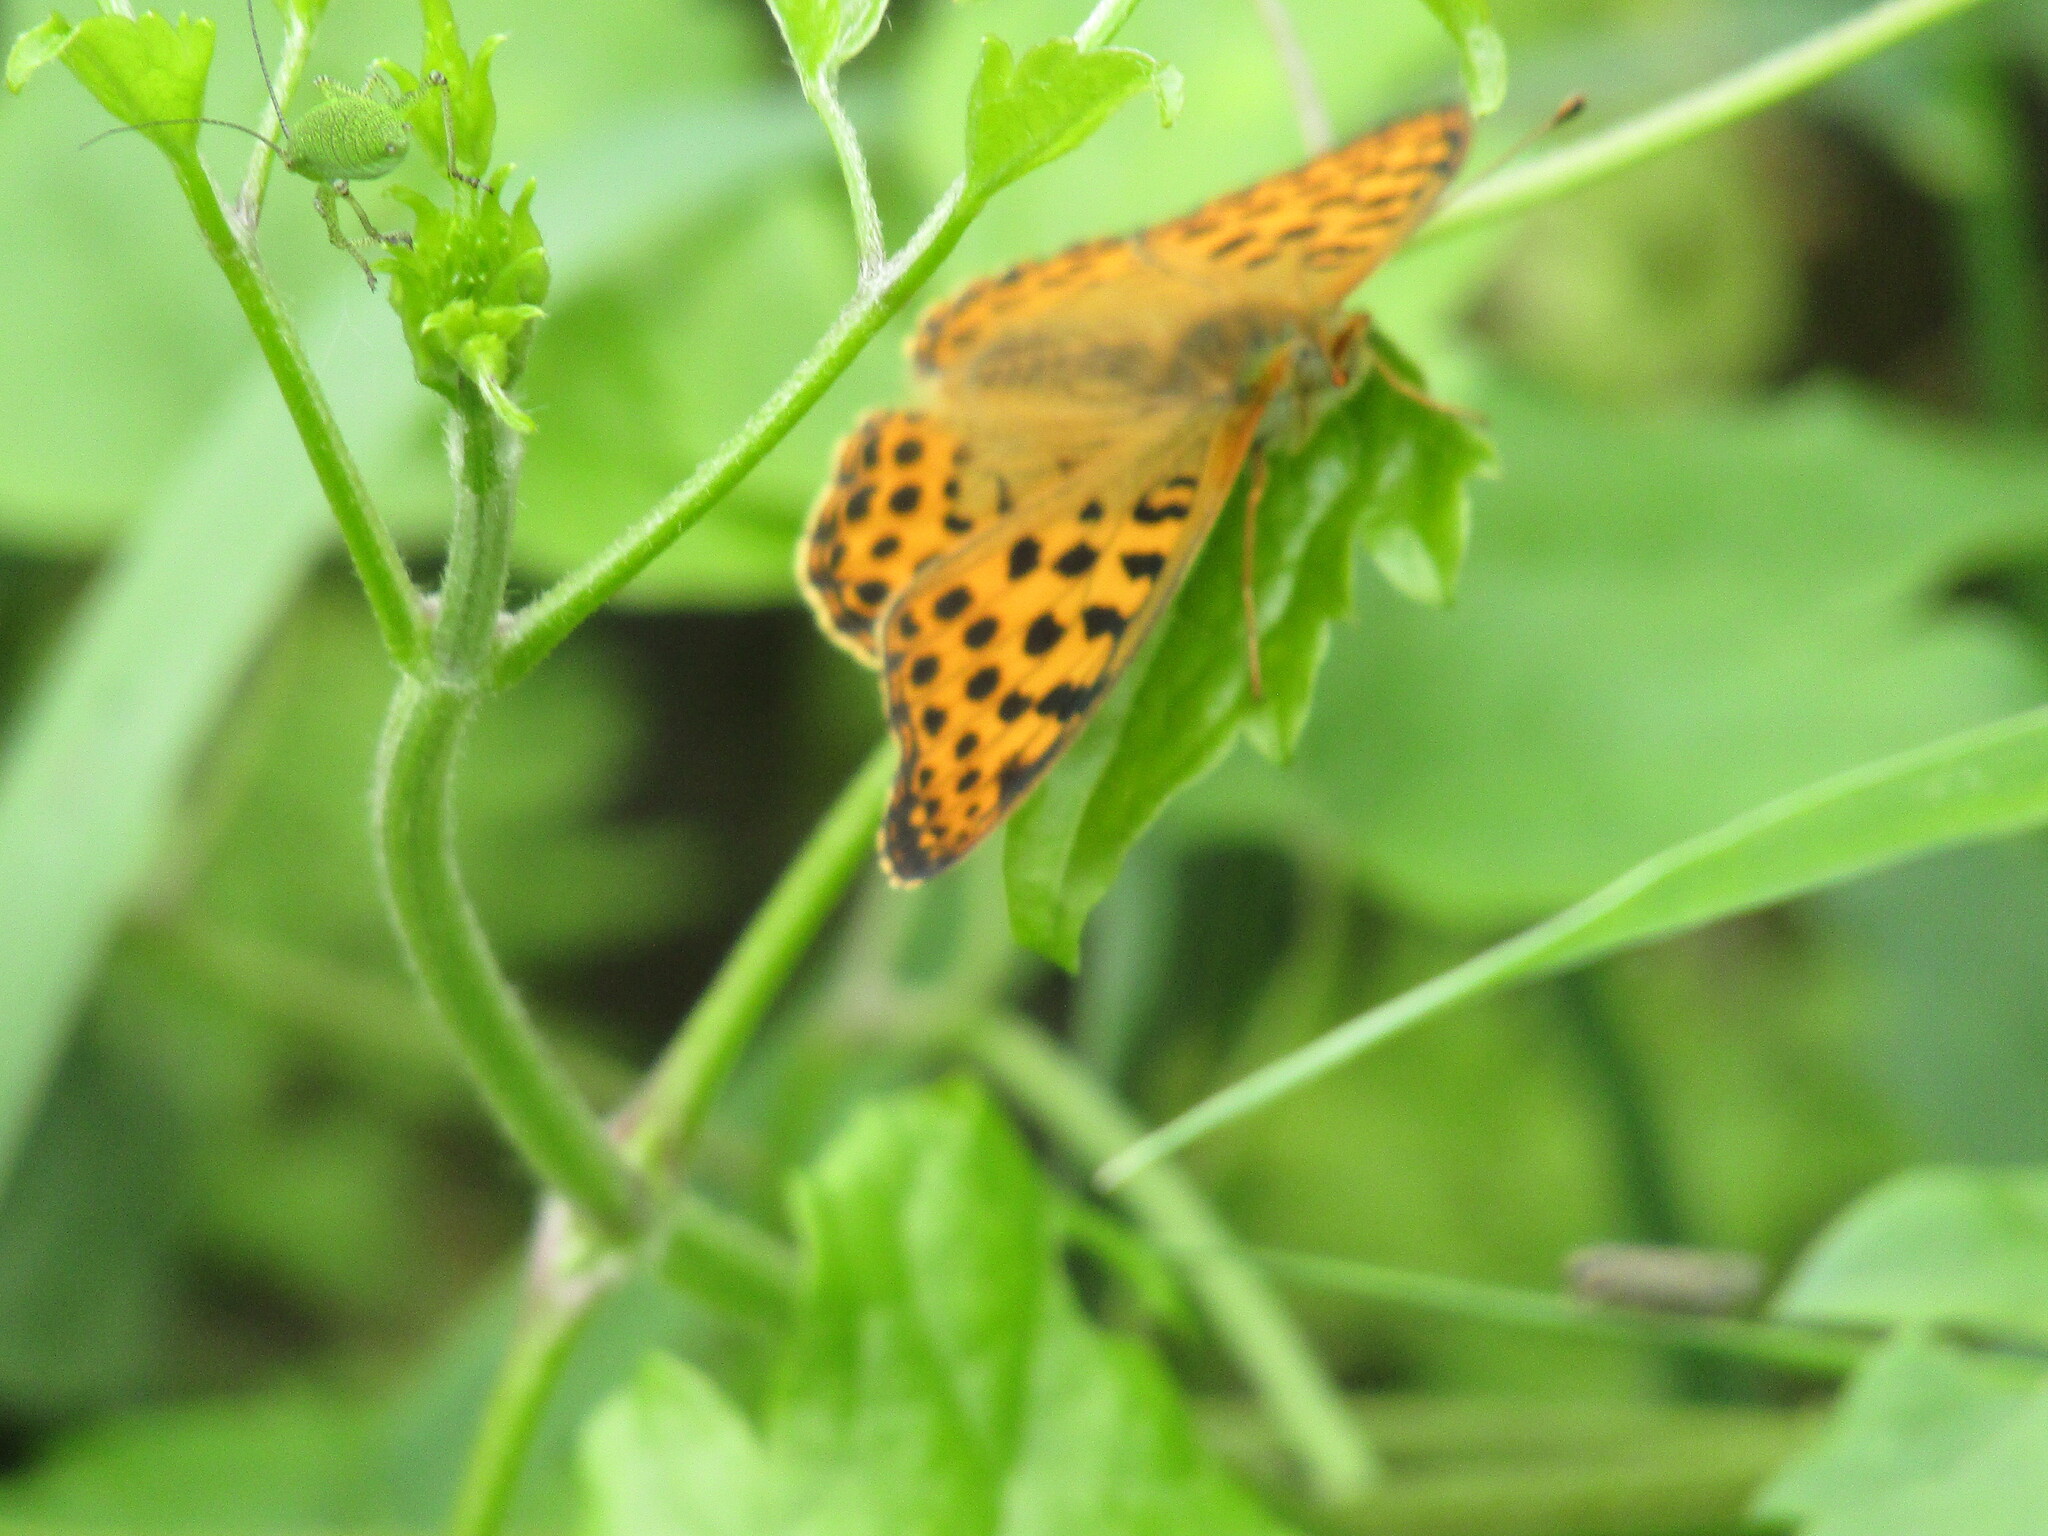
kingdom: Animalia
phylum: Arthropoda
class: Insecta
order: Lepidoptera
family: Nymphalidae
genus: Issoria
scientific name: Issoria lathonia
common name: Queen of spain fritillary
